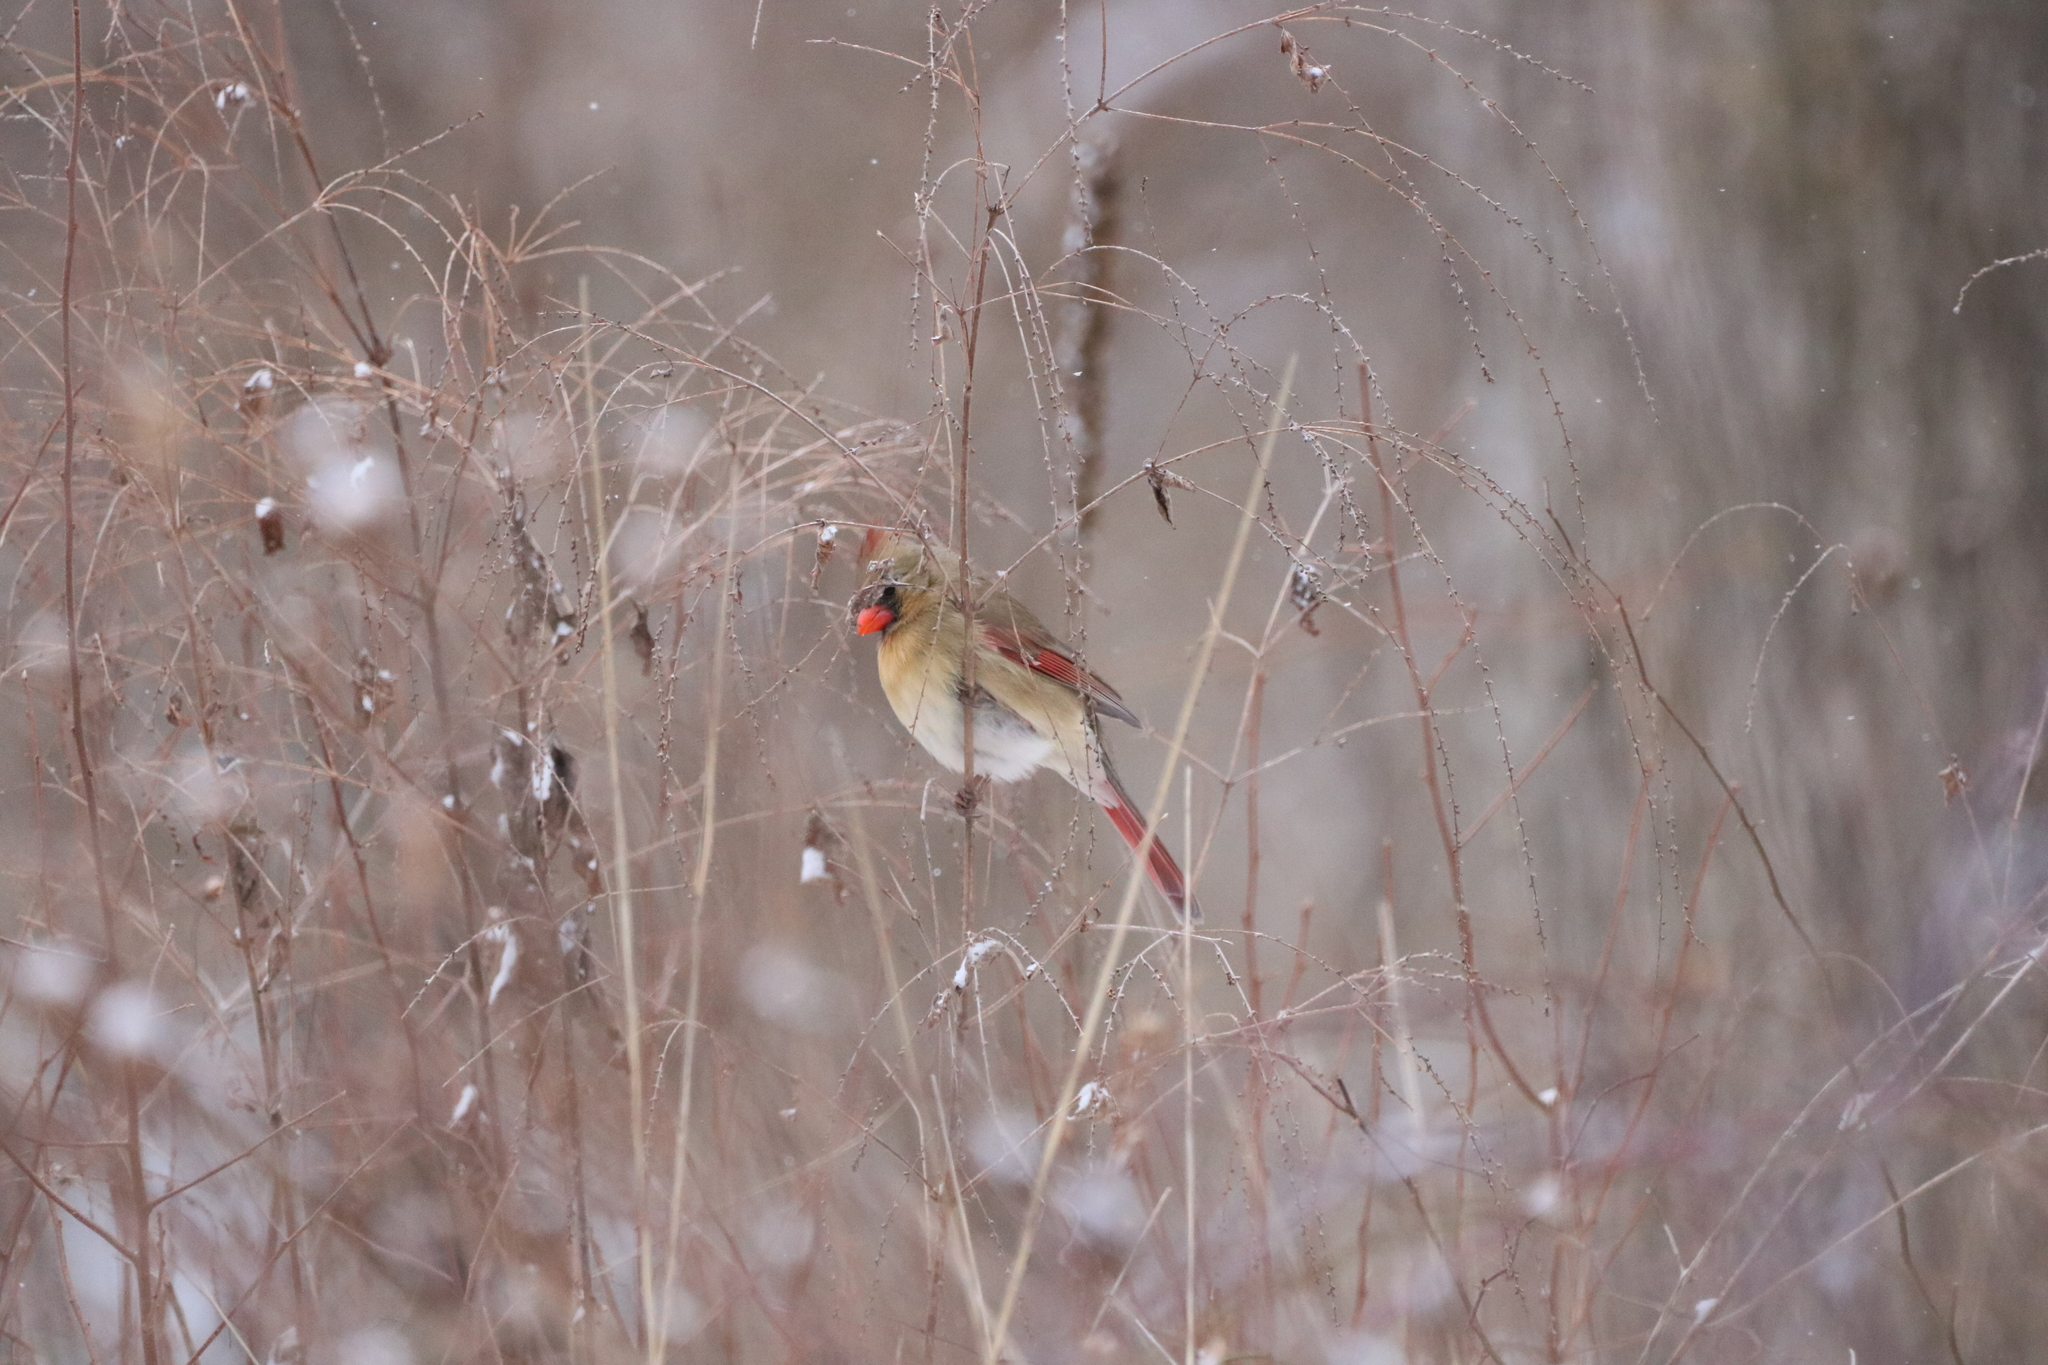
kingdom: Animalia
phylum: Chordata
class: Aves
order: Passeriformes
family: Cardinalidae
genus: Cardinalis
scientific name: Cardinalis cardinalis
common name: Northern cardinal
